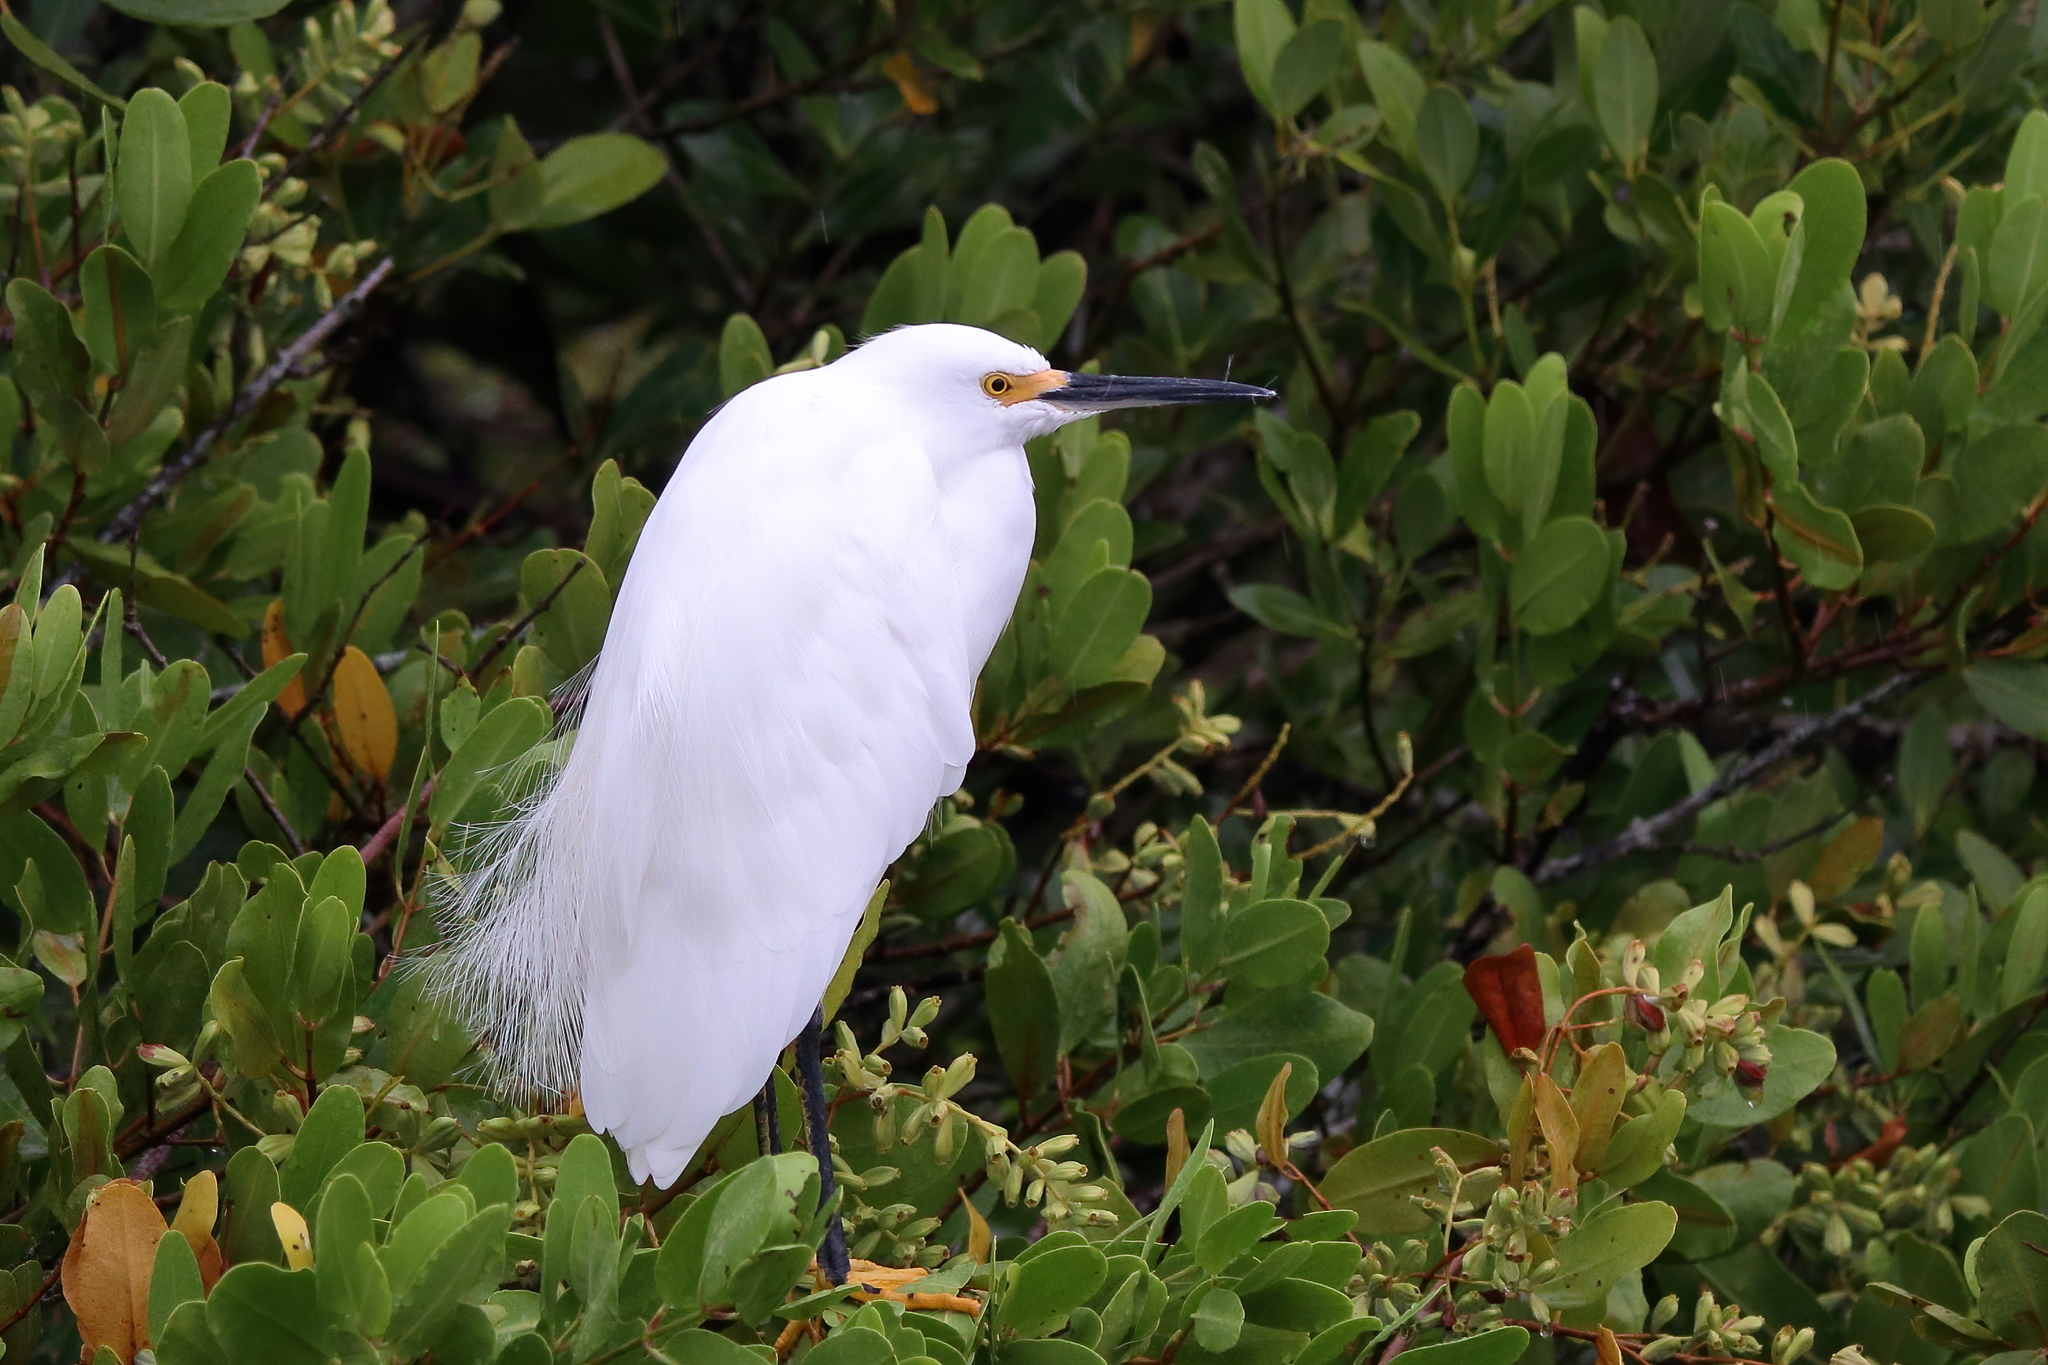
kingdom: Animalia
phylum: Chordata
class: Aves
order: Pelecaniformes
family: Ardeidae
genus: Egretta
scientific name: Egretta thula
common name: Snowy egret
